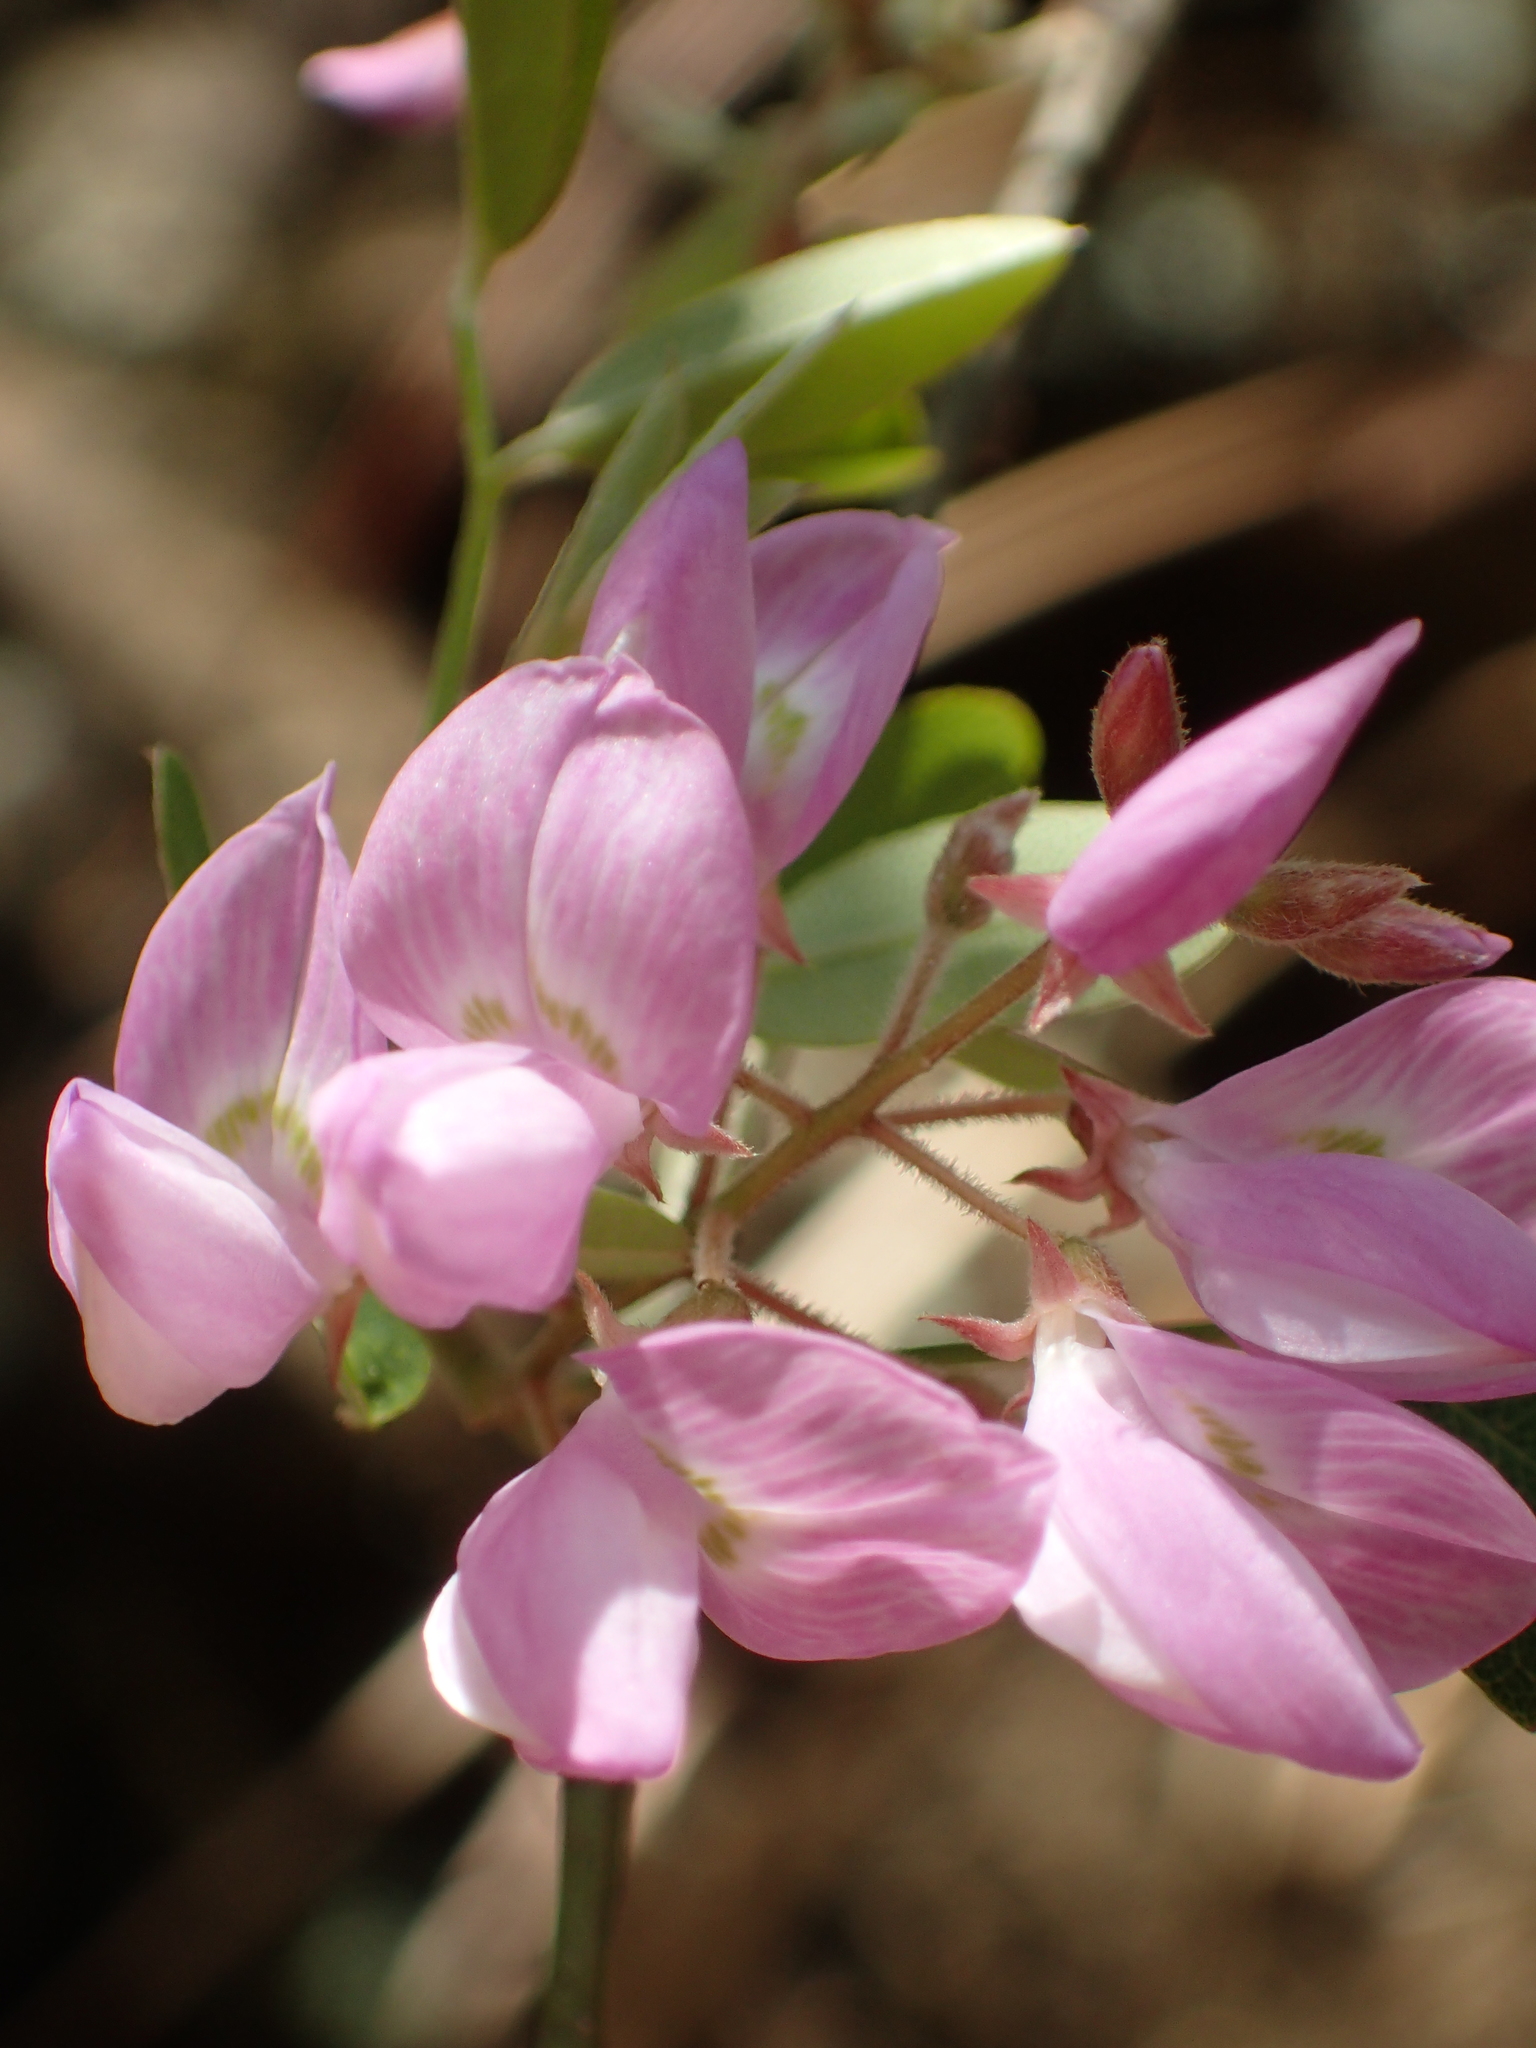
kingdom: Plantae
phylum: Tracheophyta
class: Magnoliopsida
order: Fabales
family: Fabaceae
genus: Campylotropis
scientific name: Campylotropis macrocarpa
